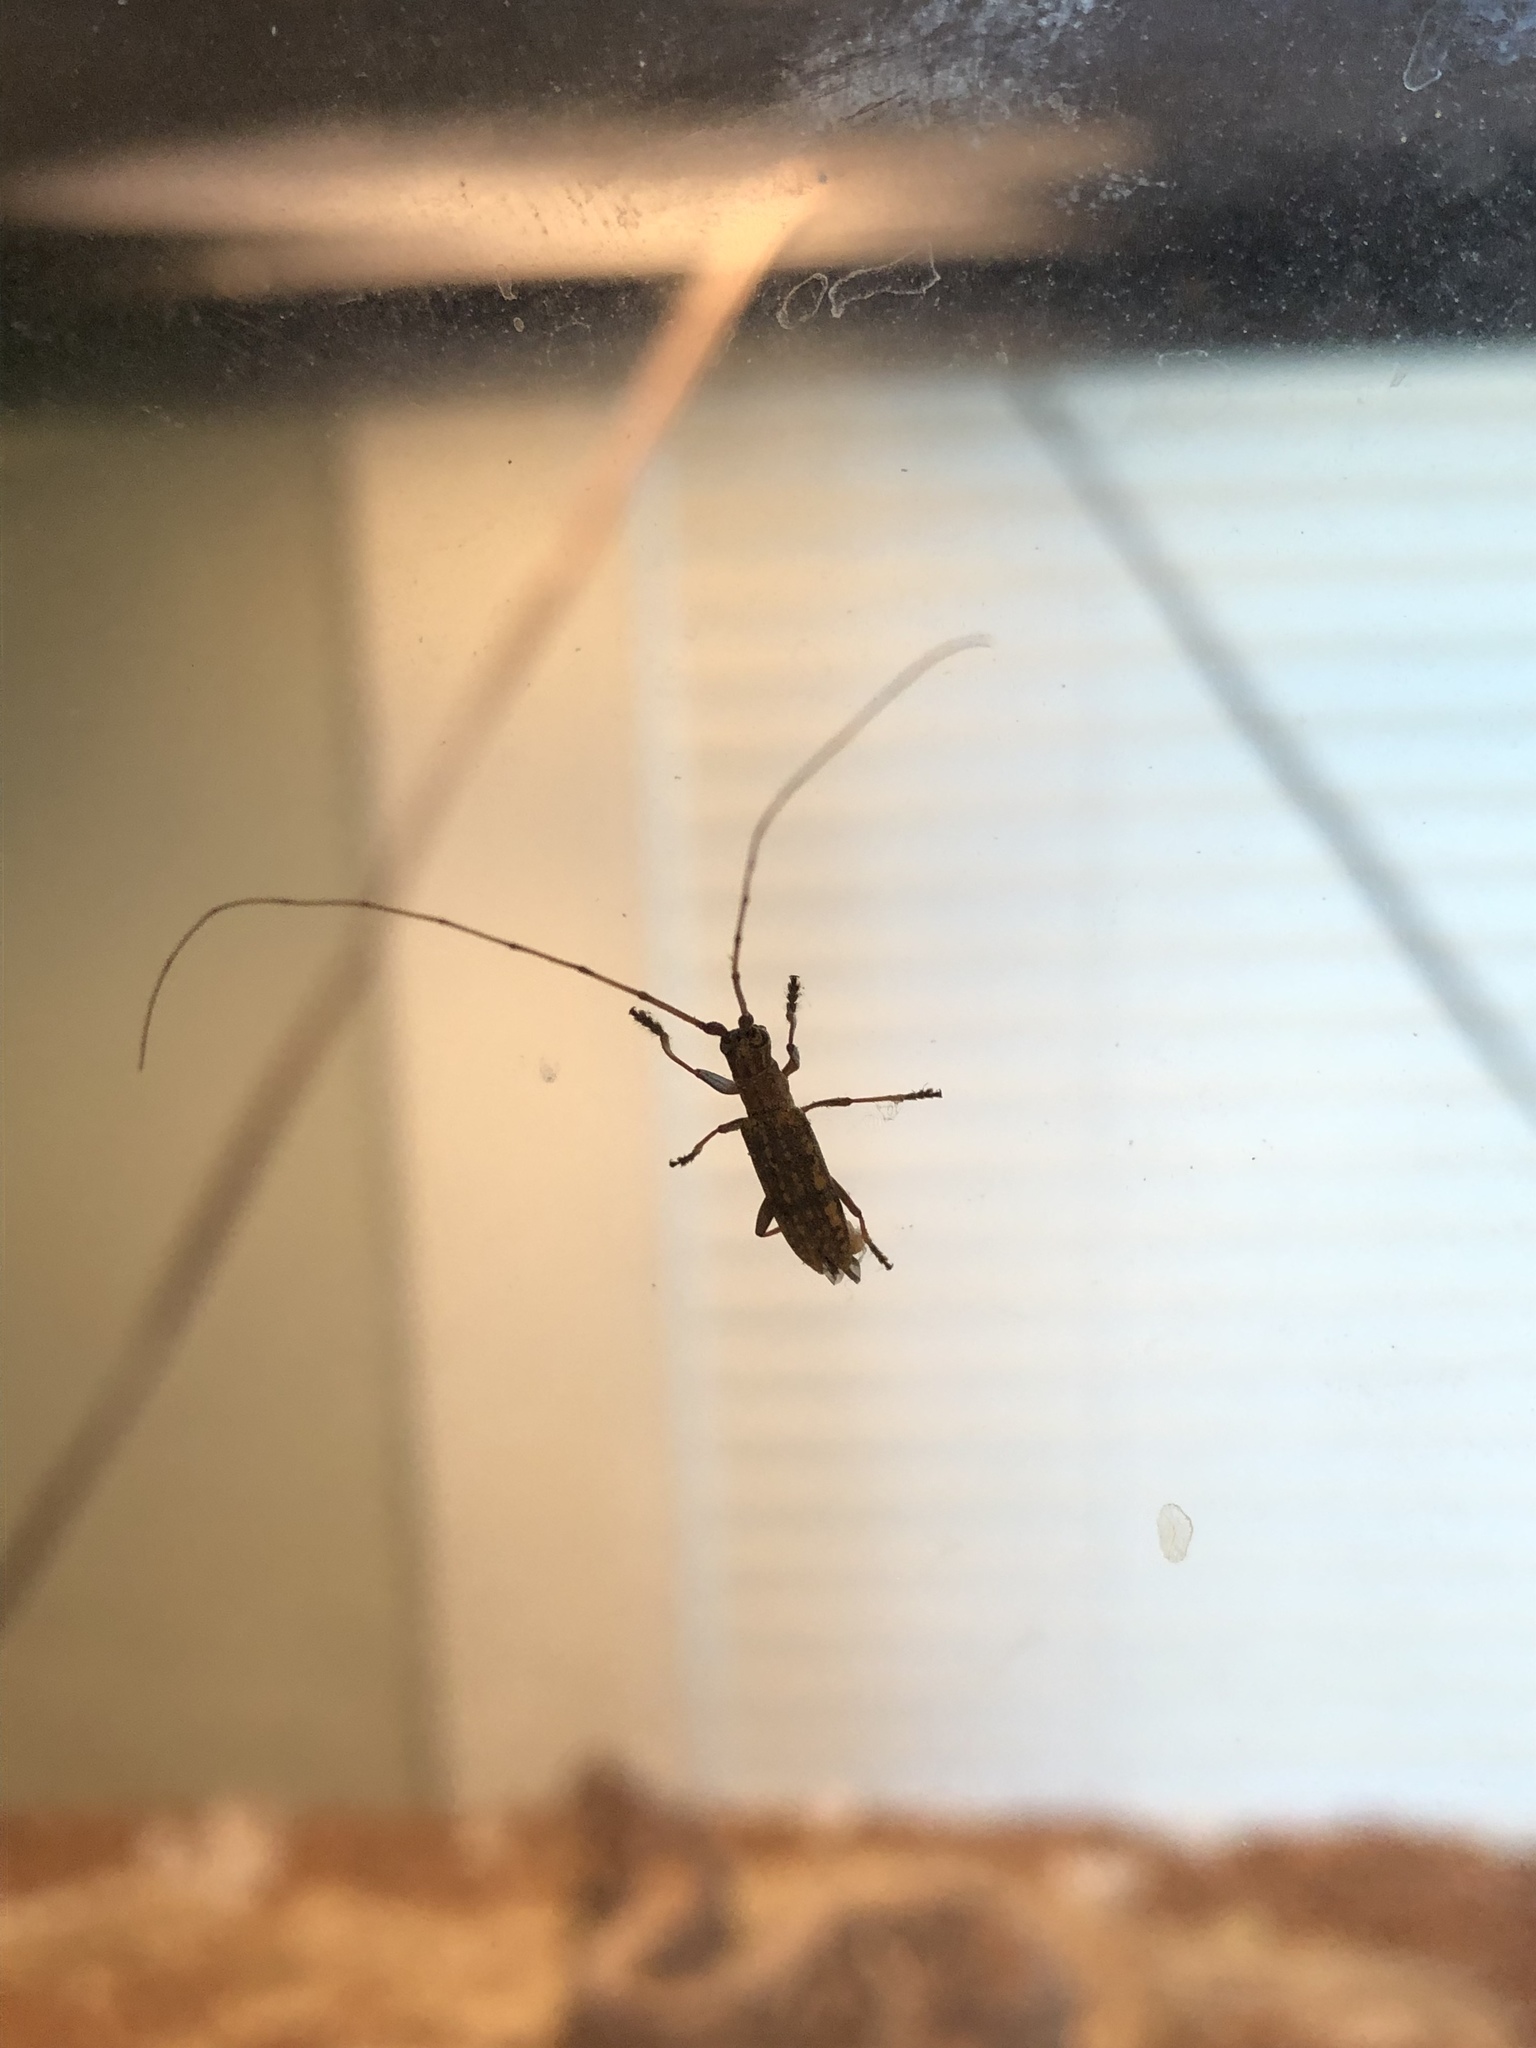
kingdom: Animalia
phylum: Arthropoda
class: Insecta
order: Coleoptera
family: Cerambycidae
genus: Dorcaschema
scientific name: Dorcaschema alternatum
